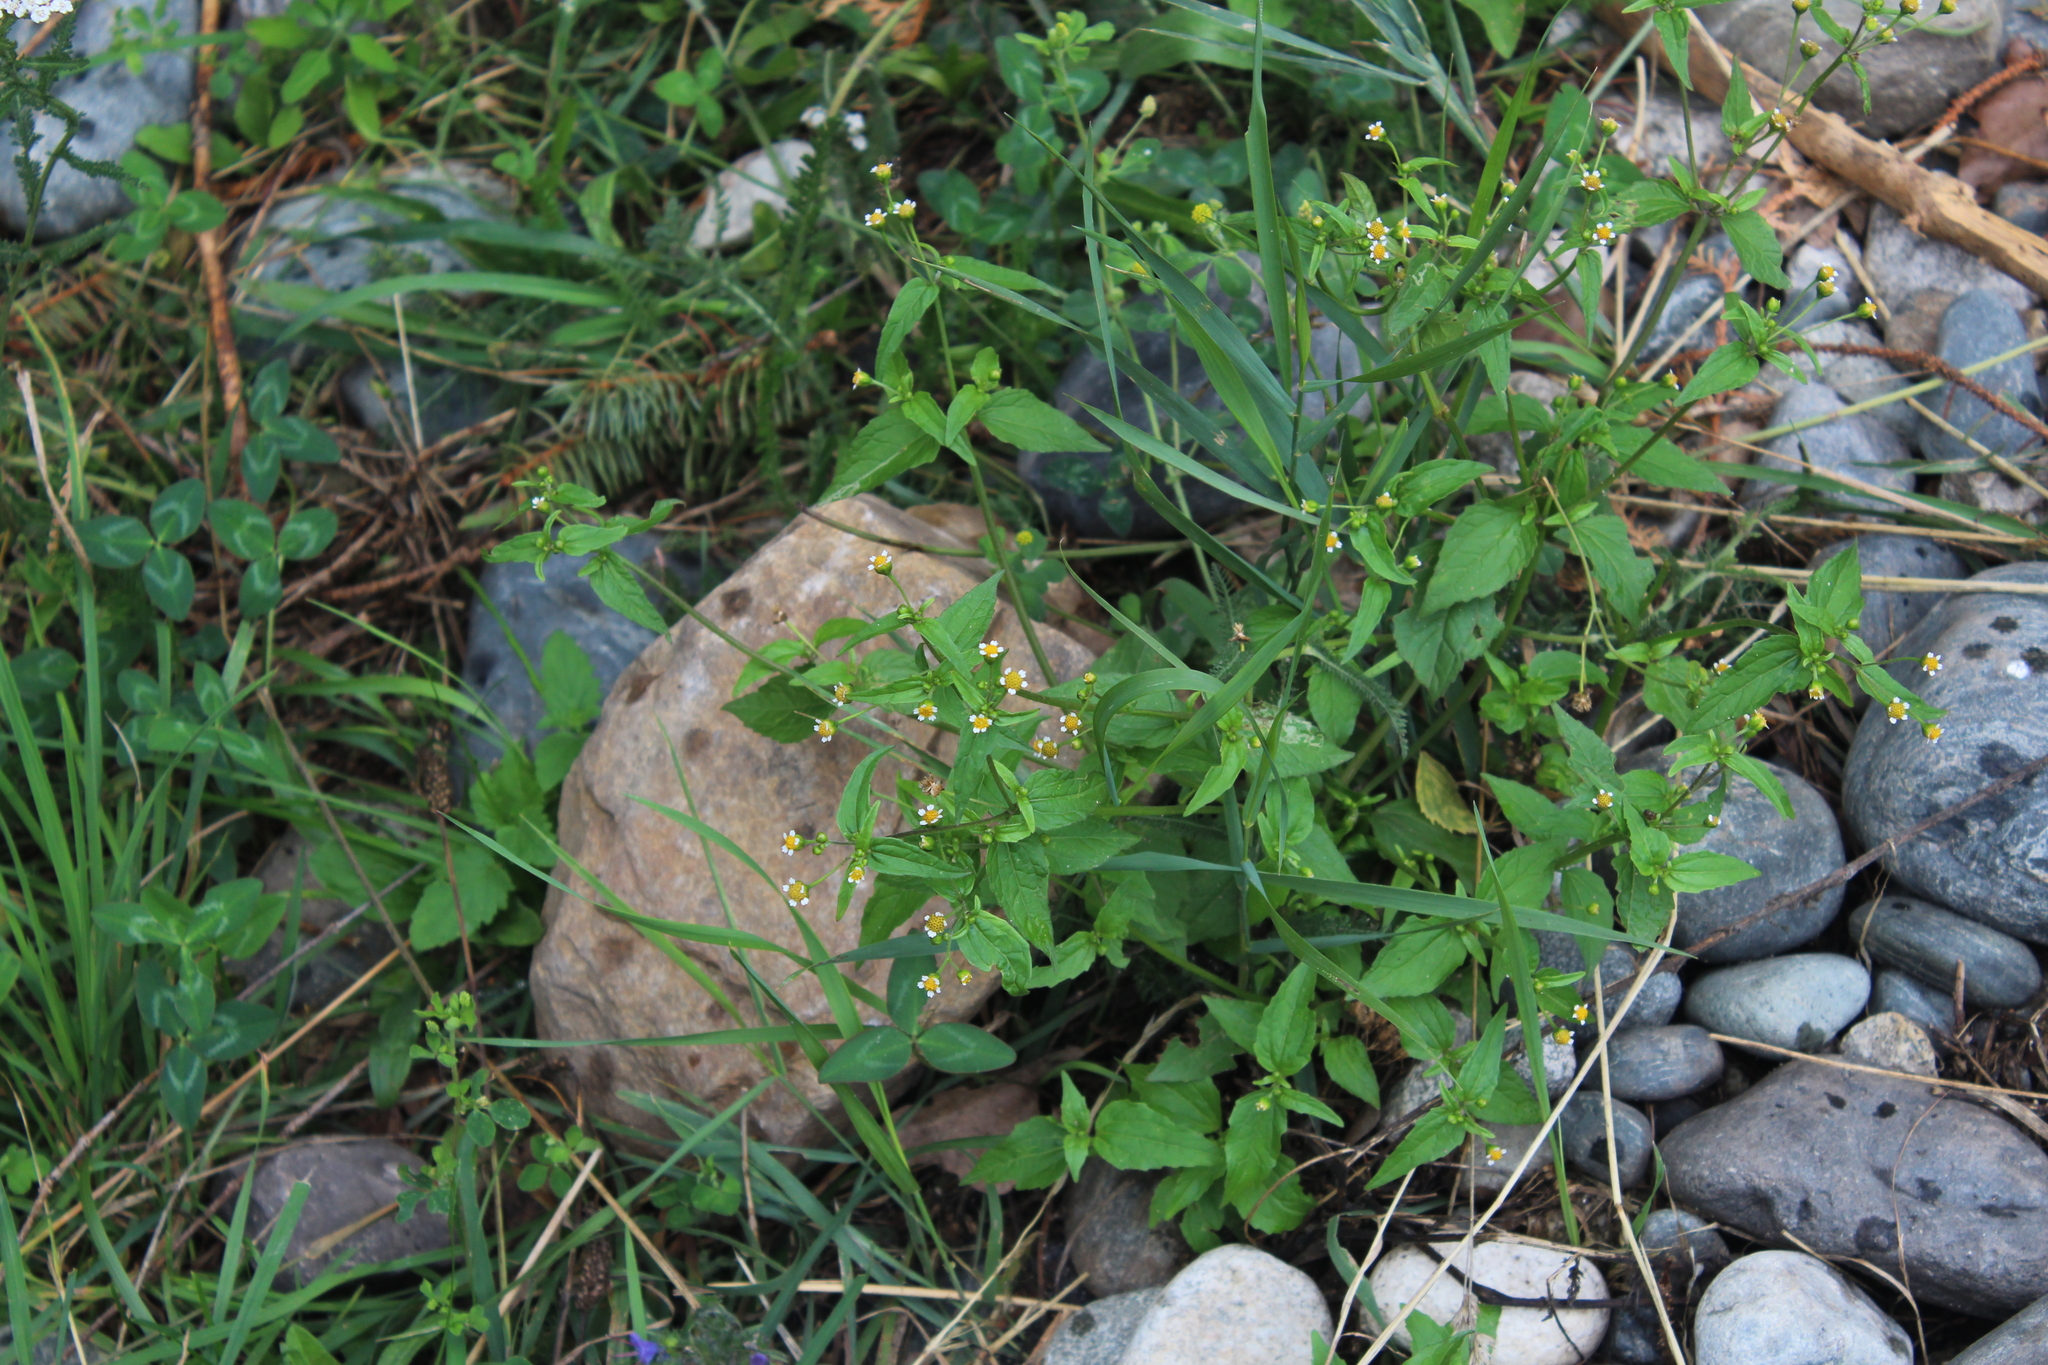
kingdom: Plantae
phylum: Tracheophyta
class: Magnoliopsida
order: Asterales
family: Asteraceae
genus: Galinsoga
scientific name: Galinsoga parviflora
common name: Gallant soldier
